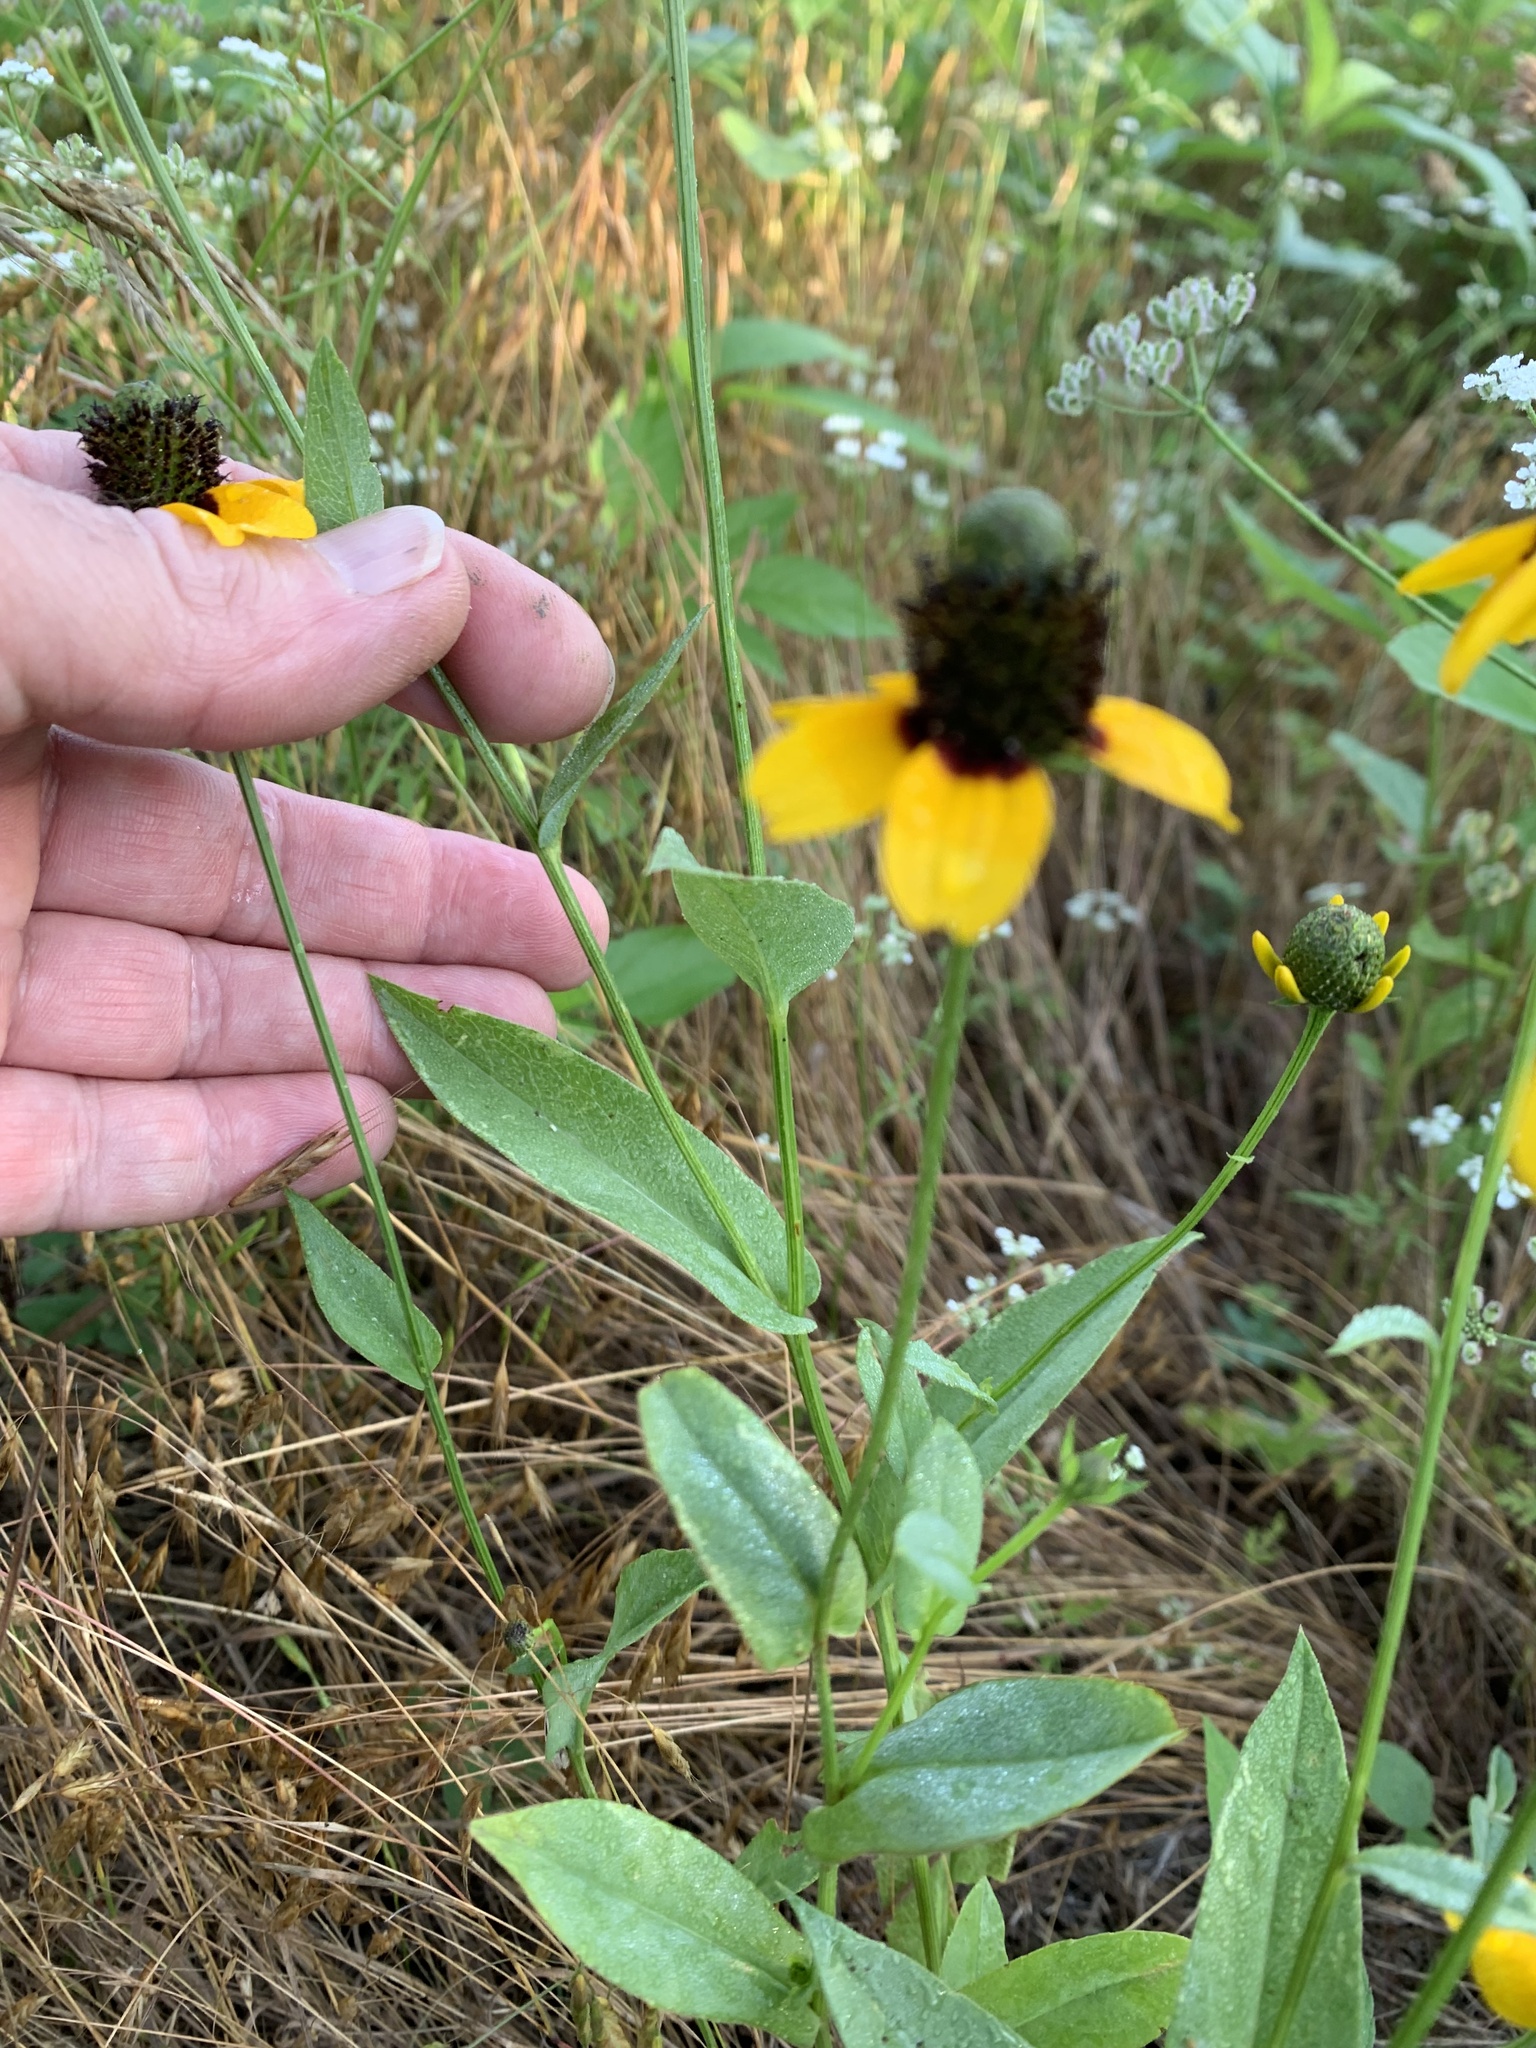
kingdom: Plantae
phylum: Tracheophyta
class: Magnoliopsida
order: Asterales
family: Asteraceae
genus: Rudbeckia
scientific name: Rudbeckia amplexicaulis
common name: Clasping-leaf coneflower
